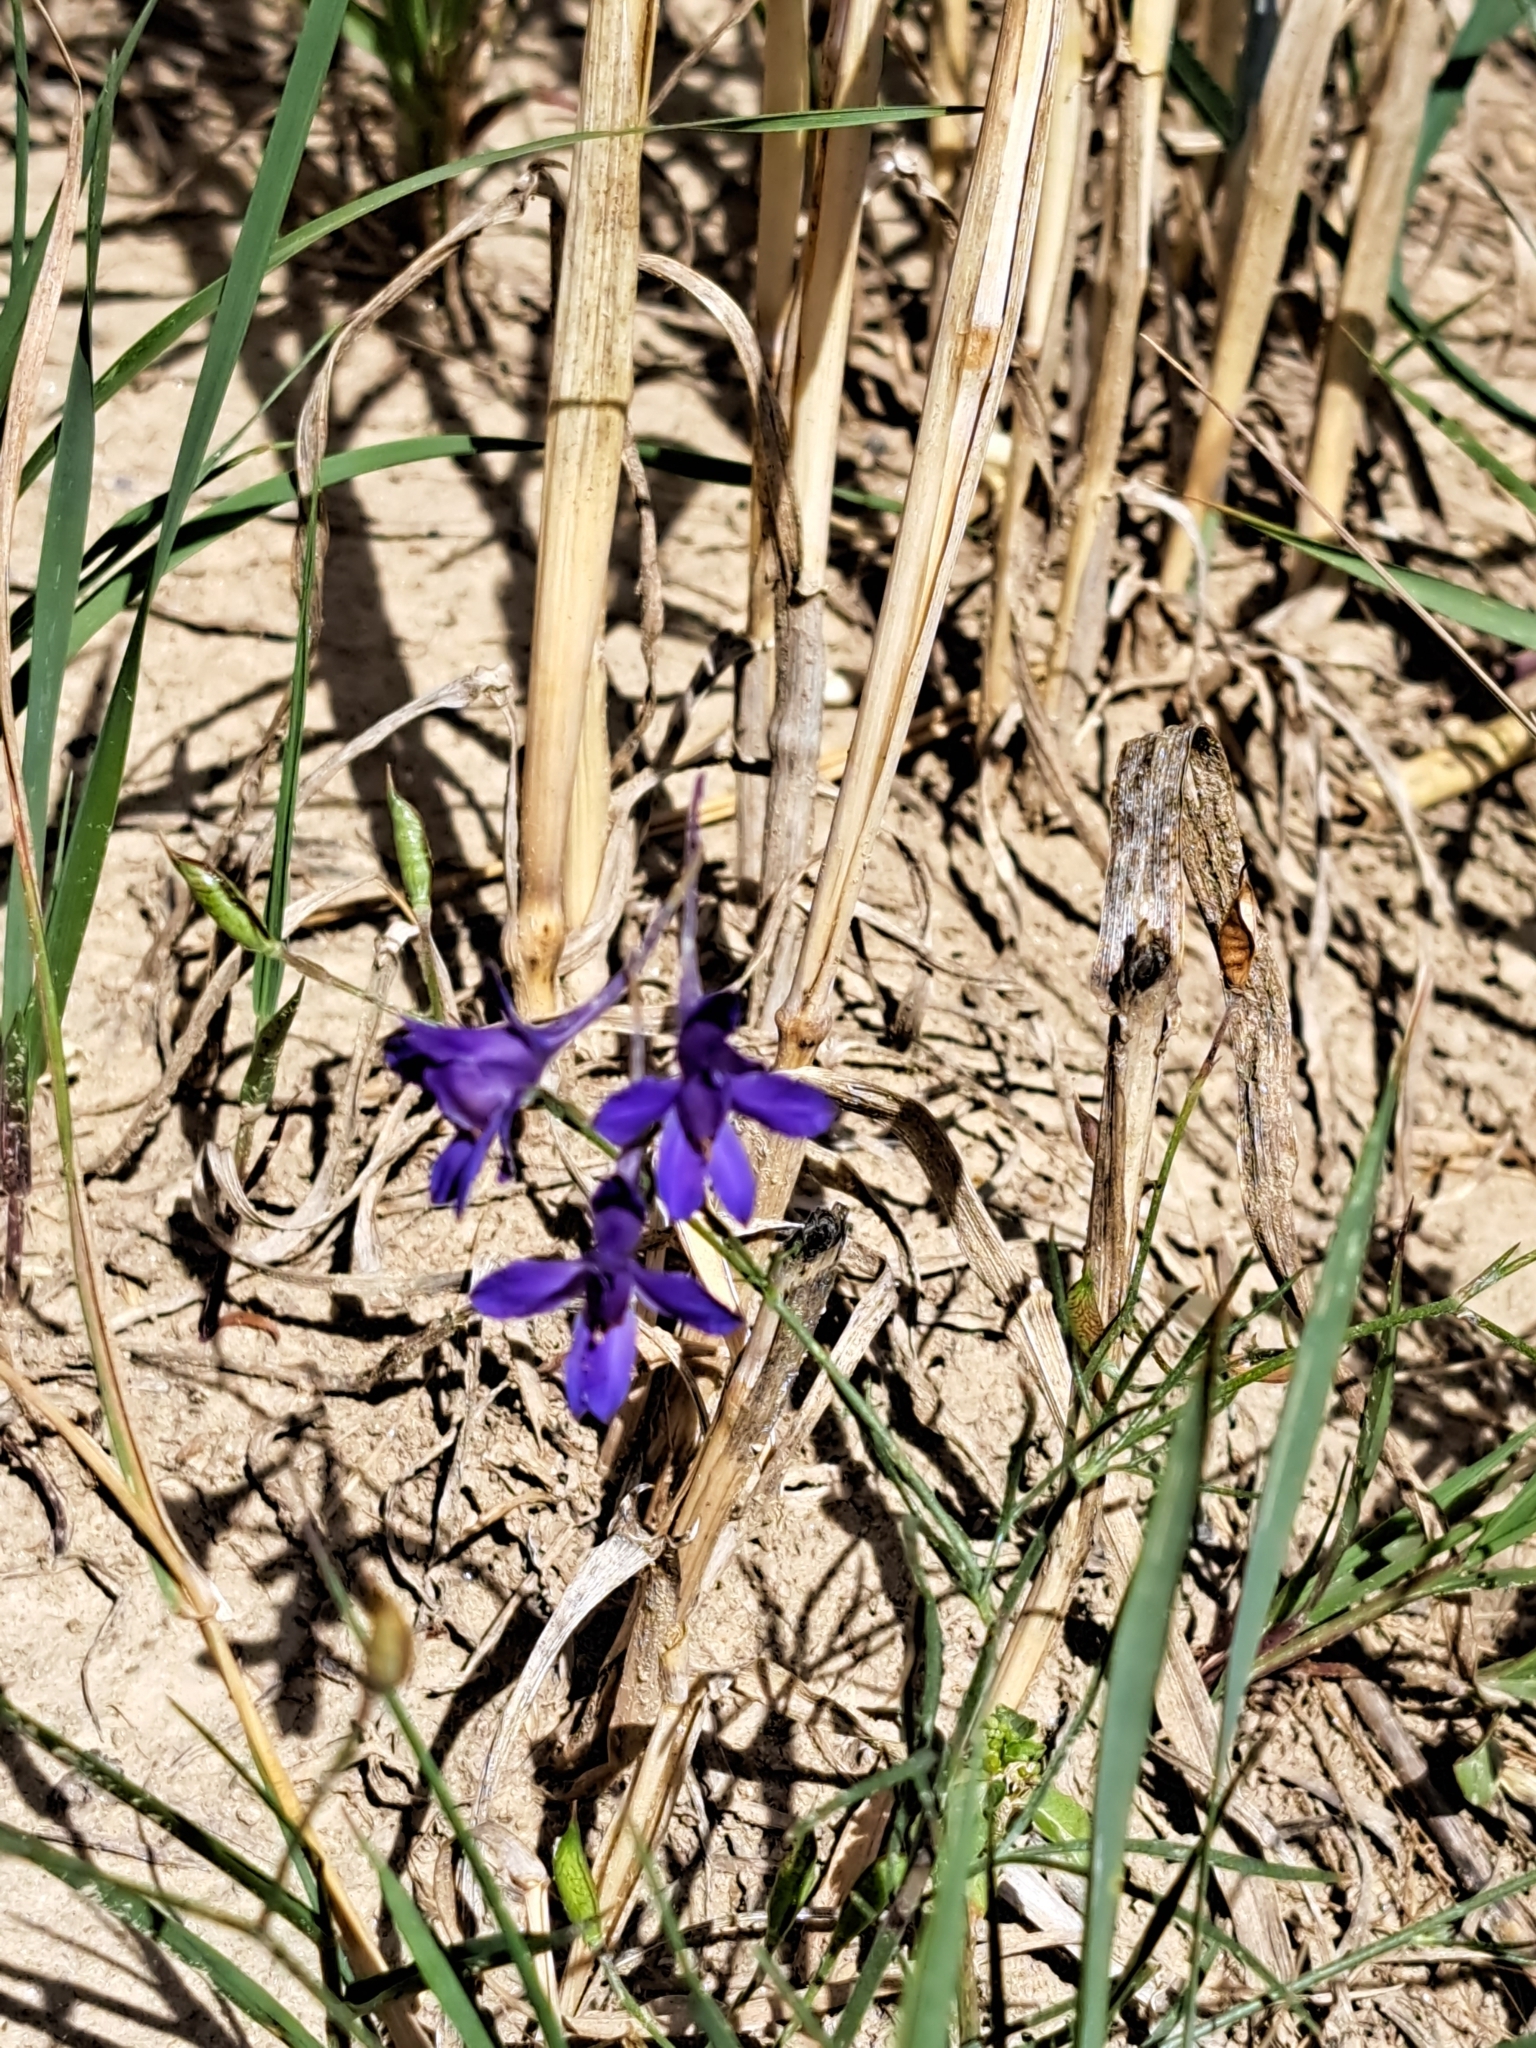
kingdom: Plantae
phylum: Tracheophyta
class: Magnoliopsida
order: Ranunculales
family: Ranunculaceae
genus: Delphinium
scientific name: Delphinium consolida
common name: Branching larkspur
